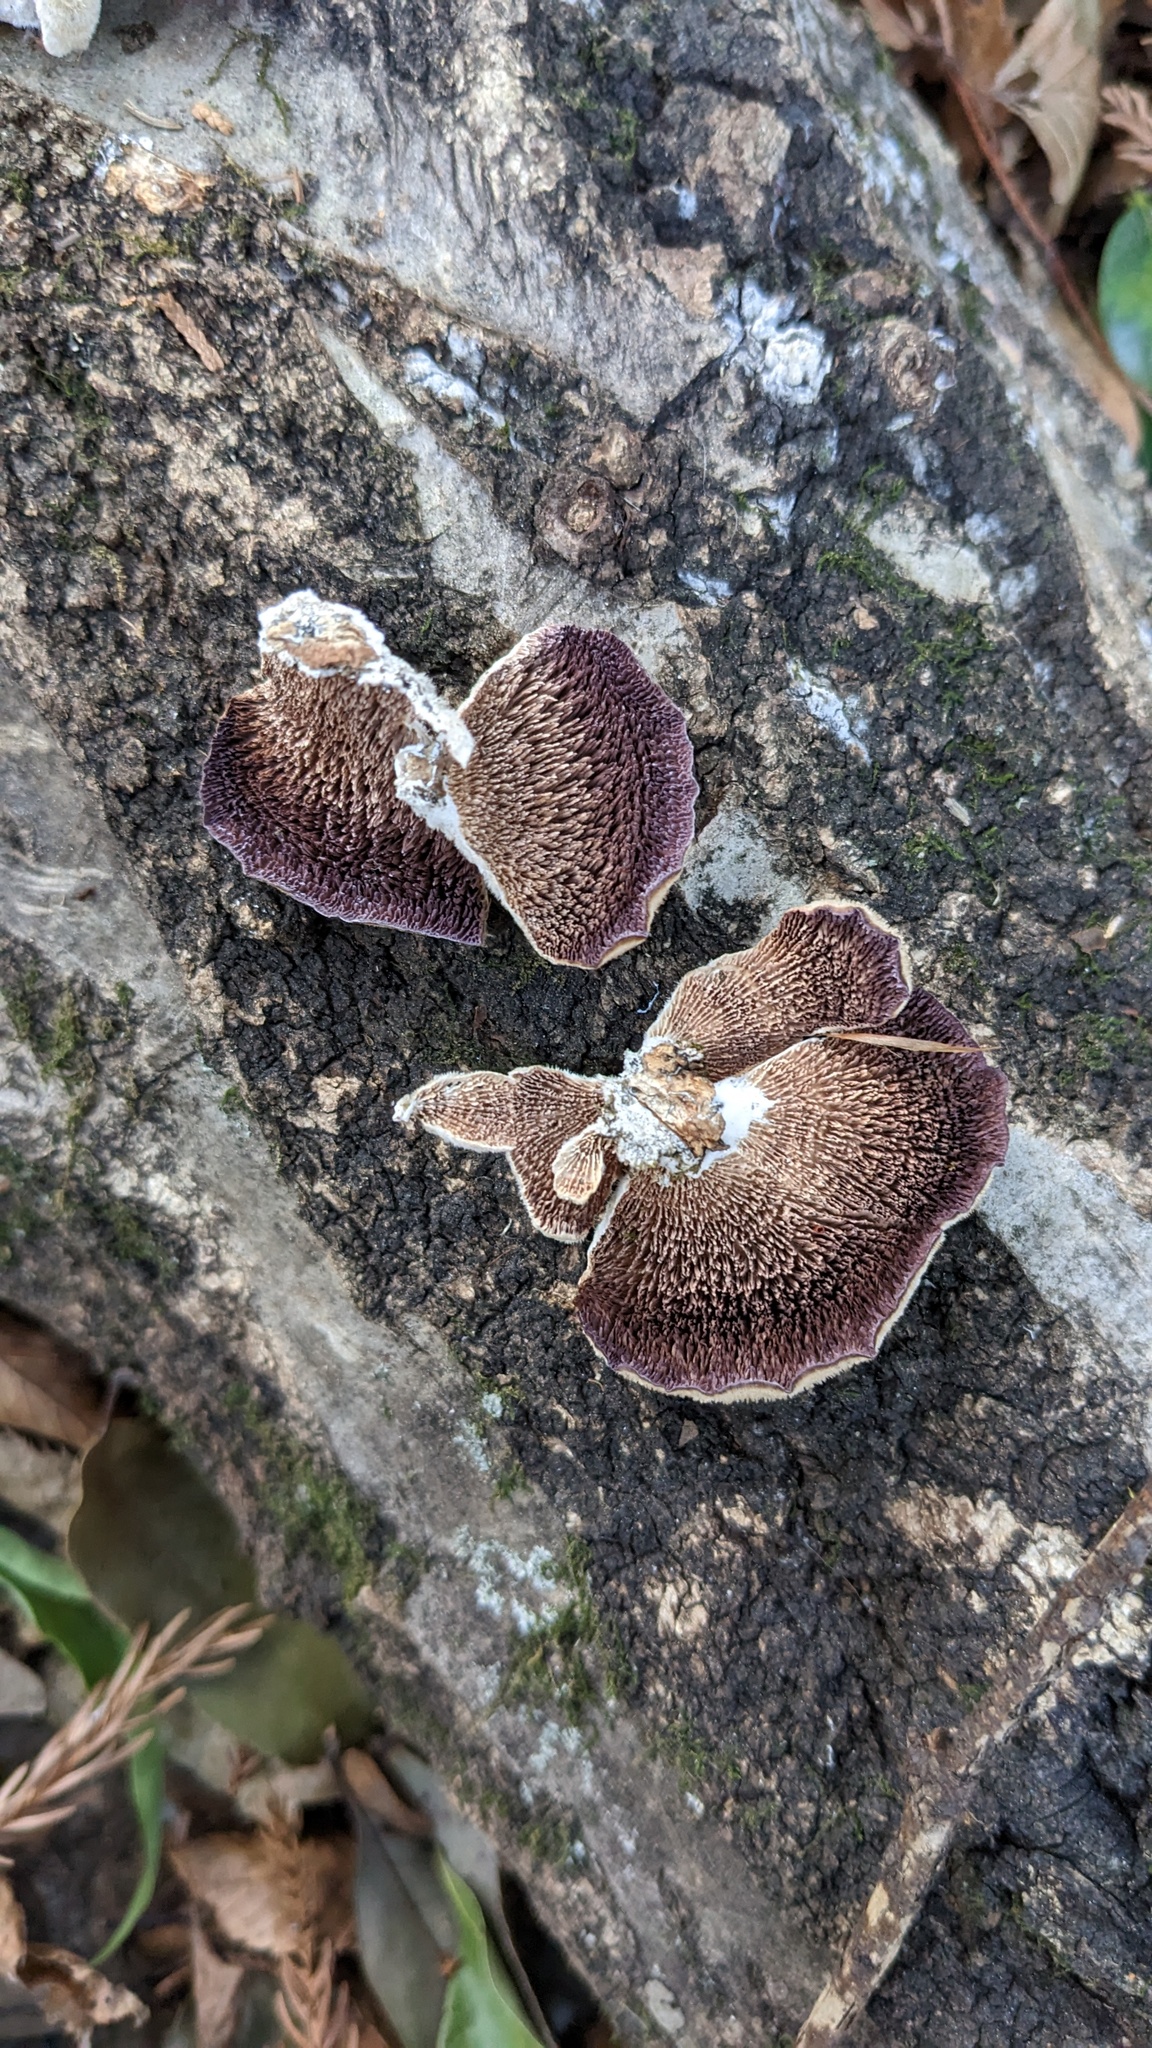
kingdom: Fungi
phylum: Basidiomycota
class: Agaricomycetes
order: Hymenochaetales
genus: Trichaptum
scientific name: Trichaptum biforme
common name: Violet-toothed polypore
